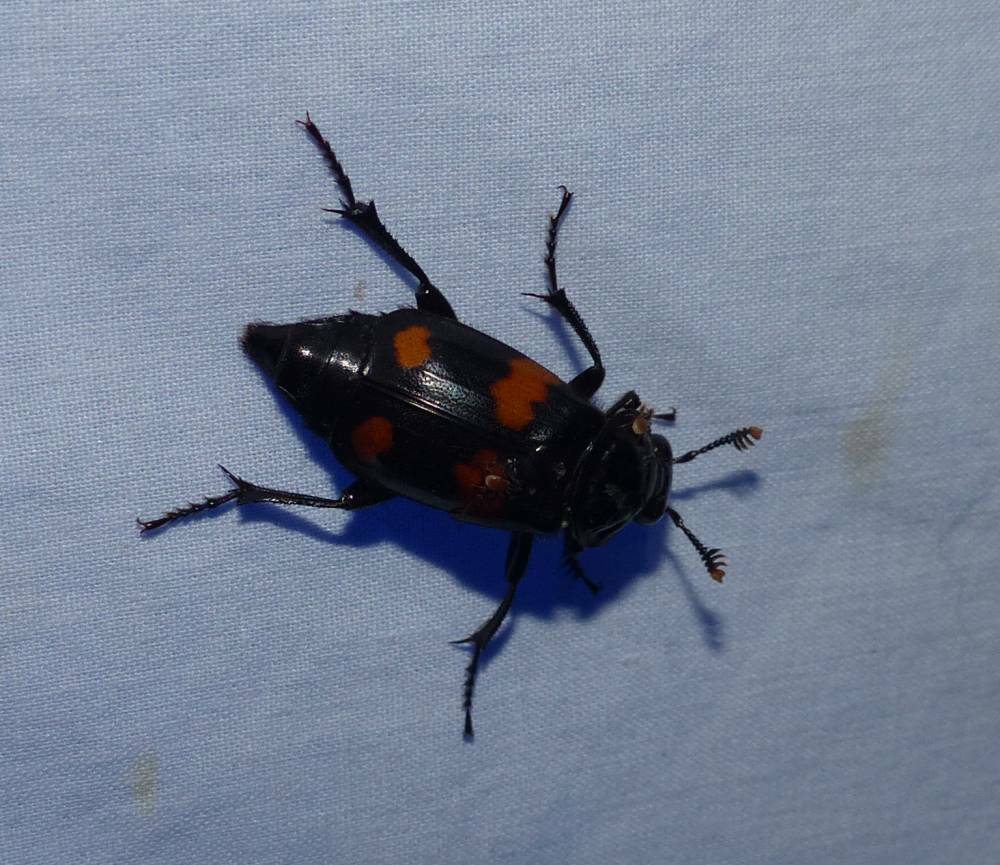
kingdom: Animalia
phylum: Arthropoda
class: Insecta
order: Coleoptera
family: Staphylinidae
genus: Nicrophorus
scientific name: Nicrophorus orbicollis
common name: Roundneck sexton beetle
